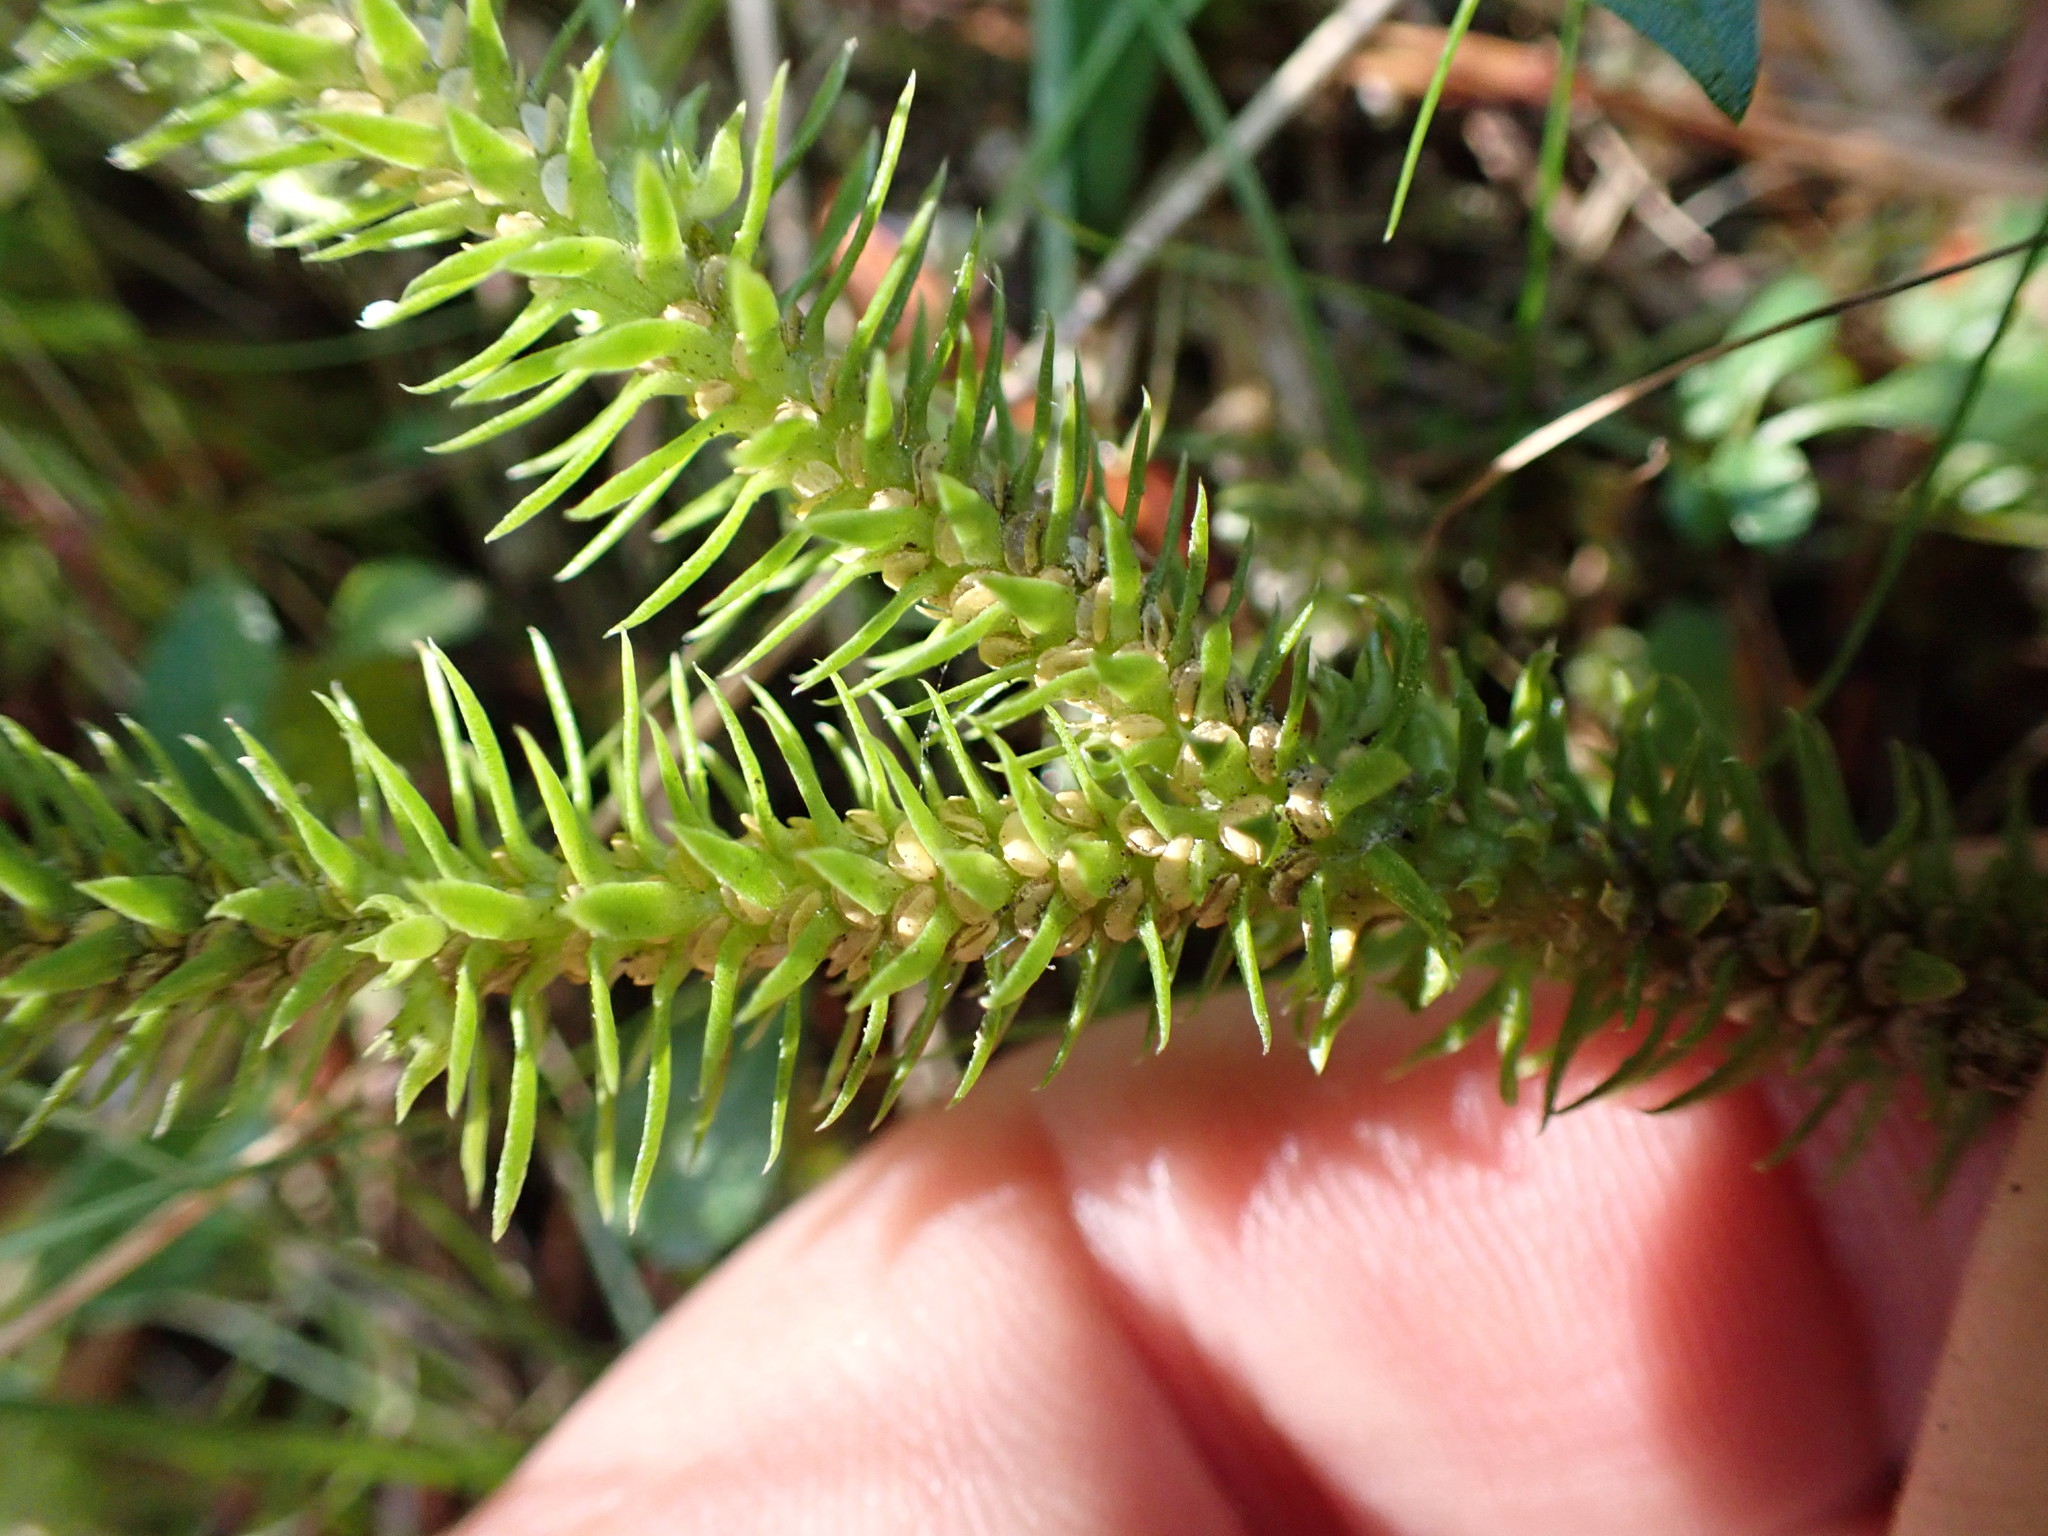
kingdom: Plantae
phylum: Tracheophyta
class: Lycopodiopsida
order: Lycopodiales
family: Lycopodiaceae
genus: Huperzia
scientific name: Huperzia miyoshiana
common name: Chinese clubmoss
